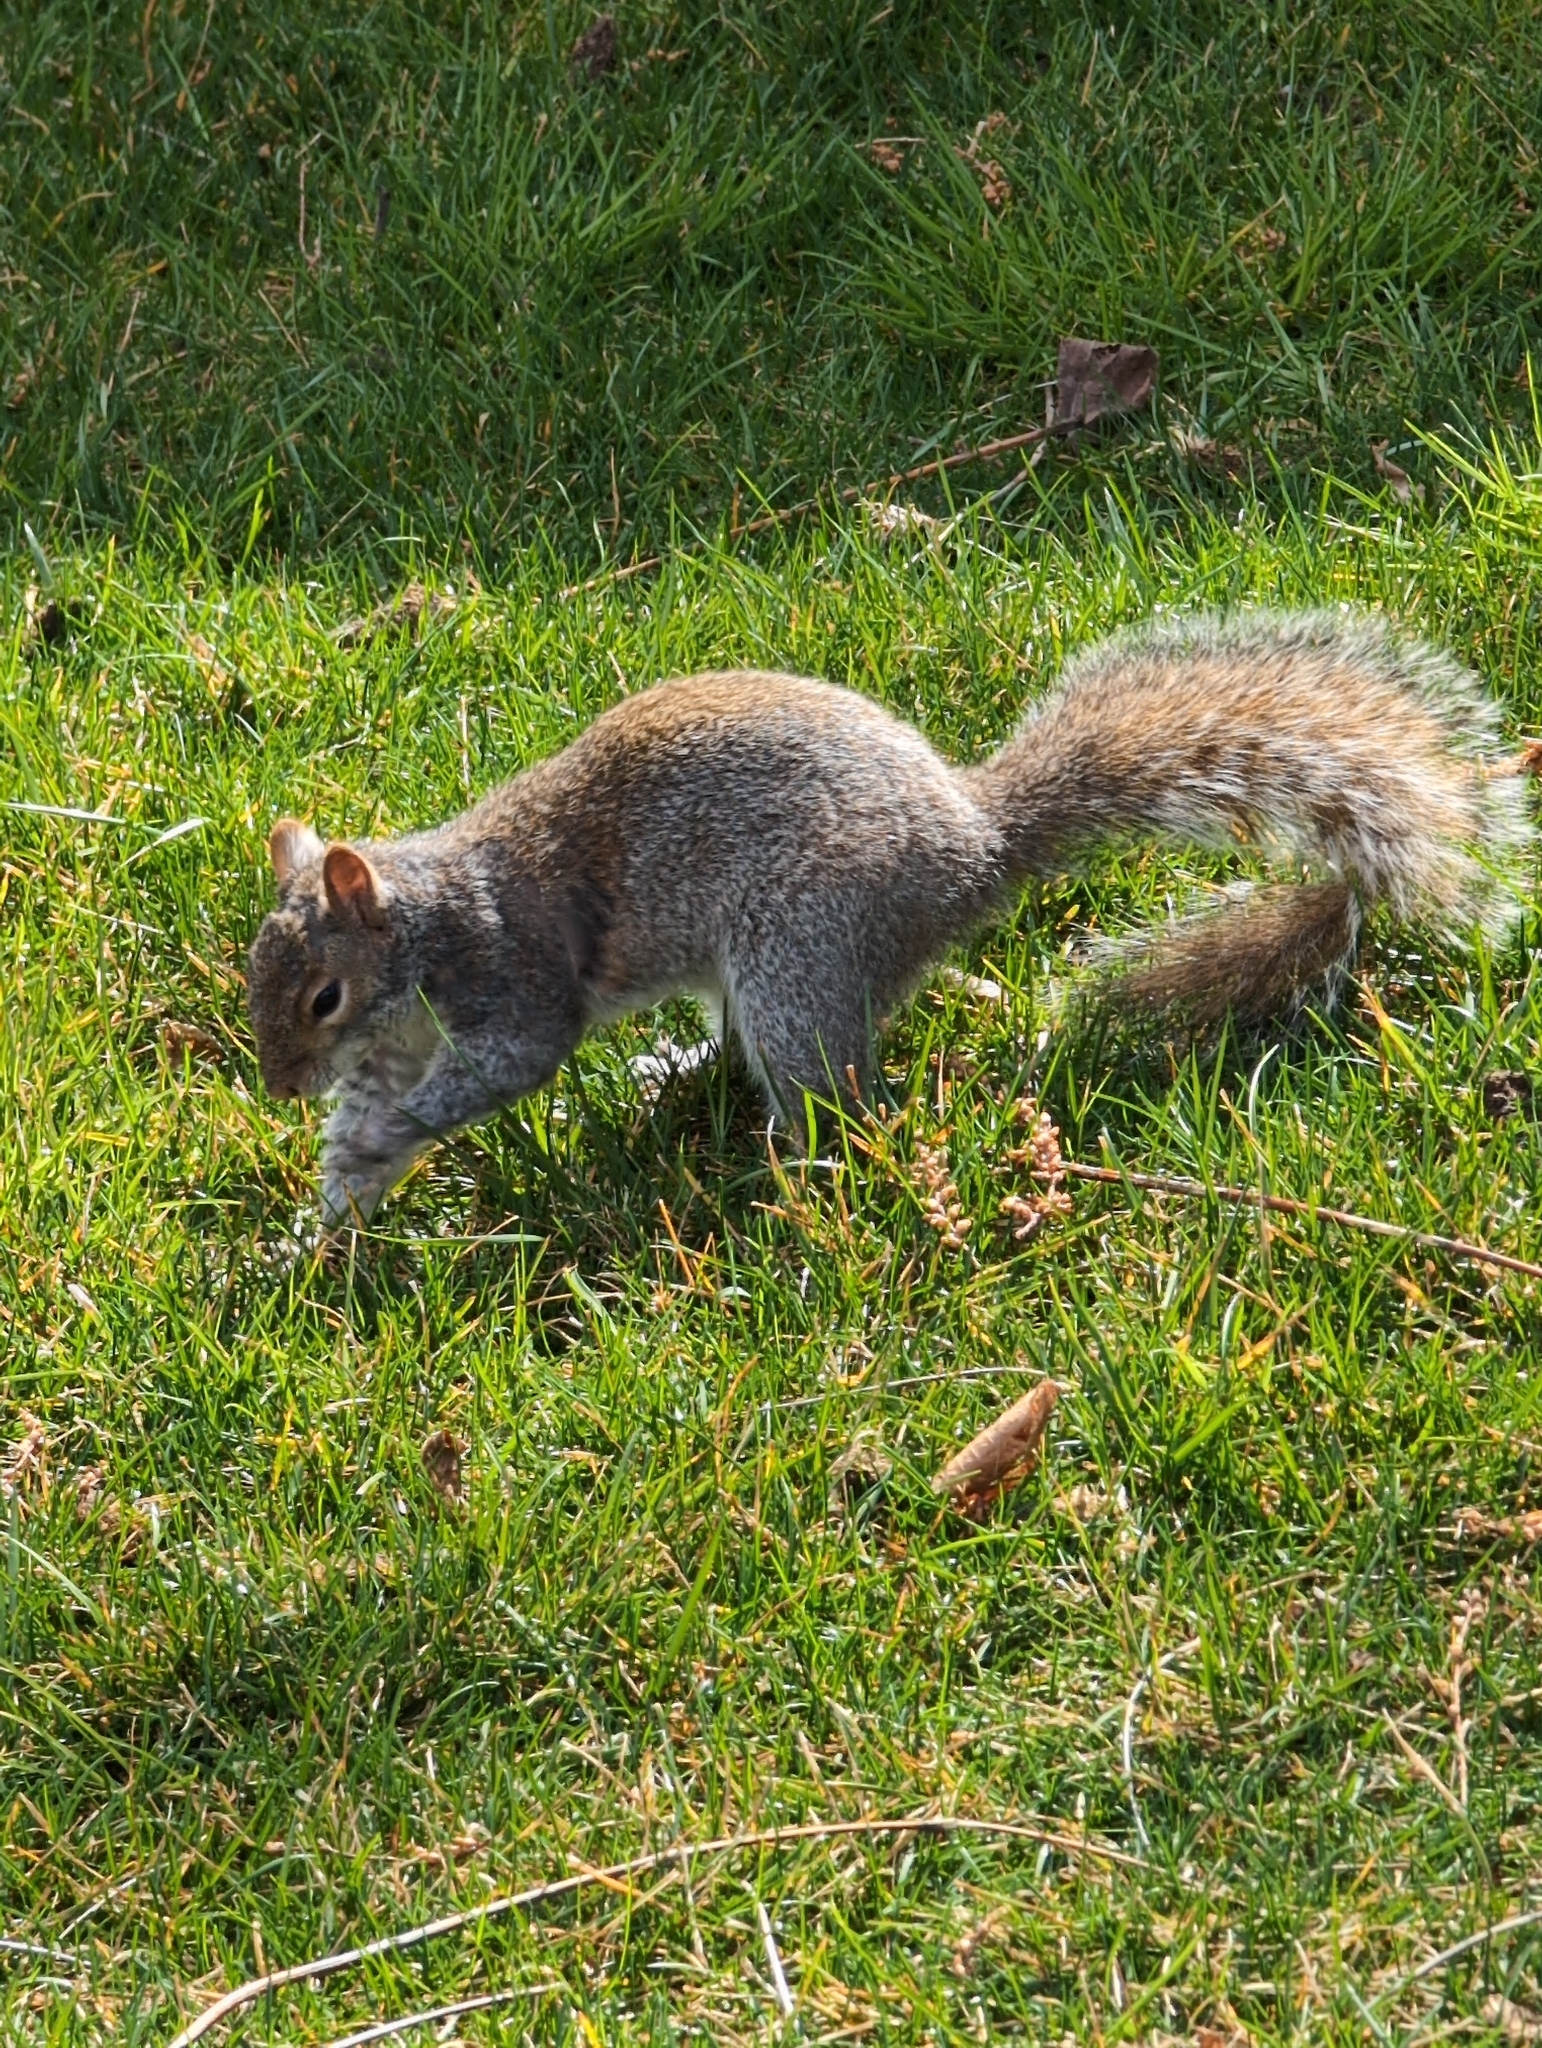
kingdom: Animalia
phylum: Chordata
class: Mammalia
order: Rodentia
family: Sciuridae
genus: Sciurus
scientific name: Sciurus carolinensis
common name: Eastern gray squirrel
